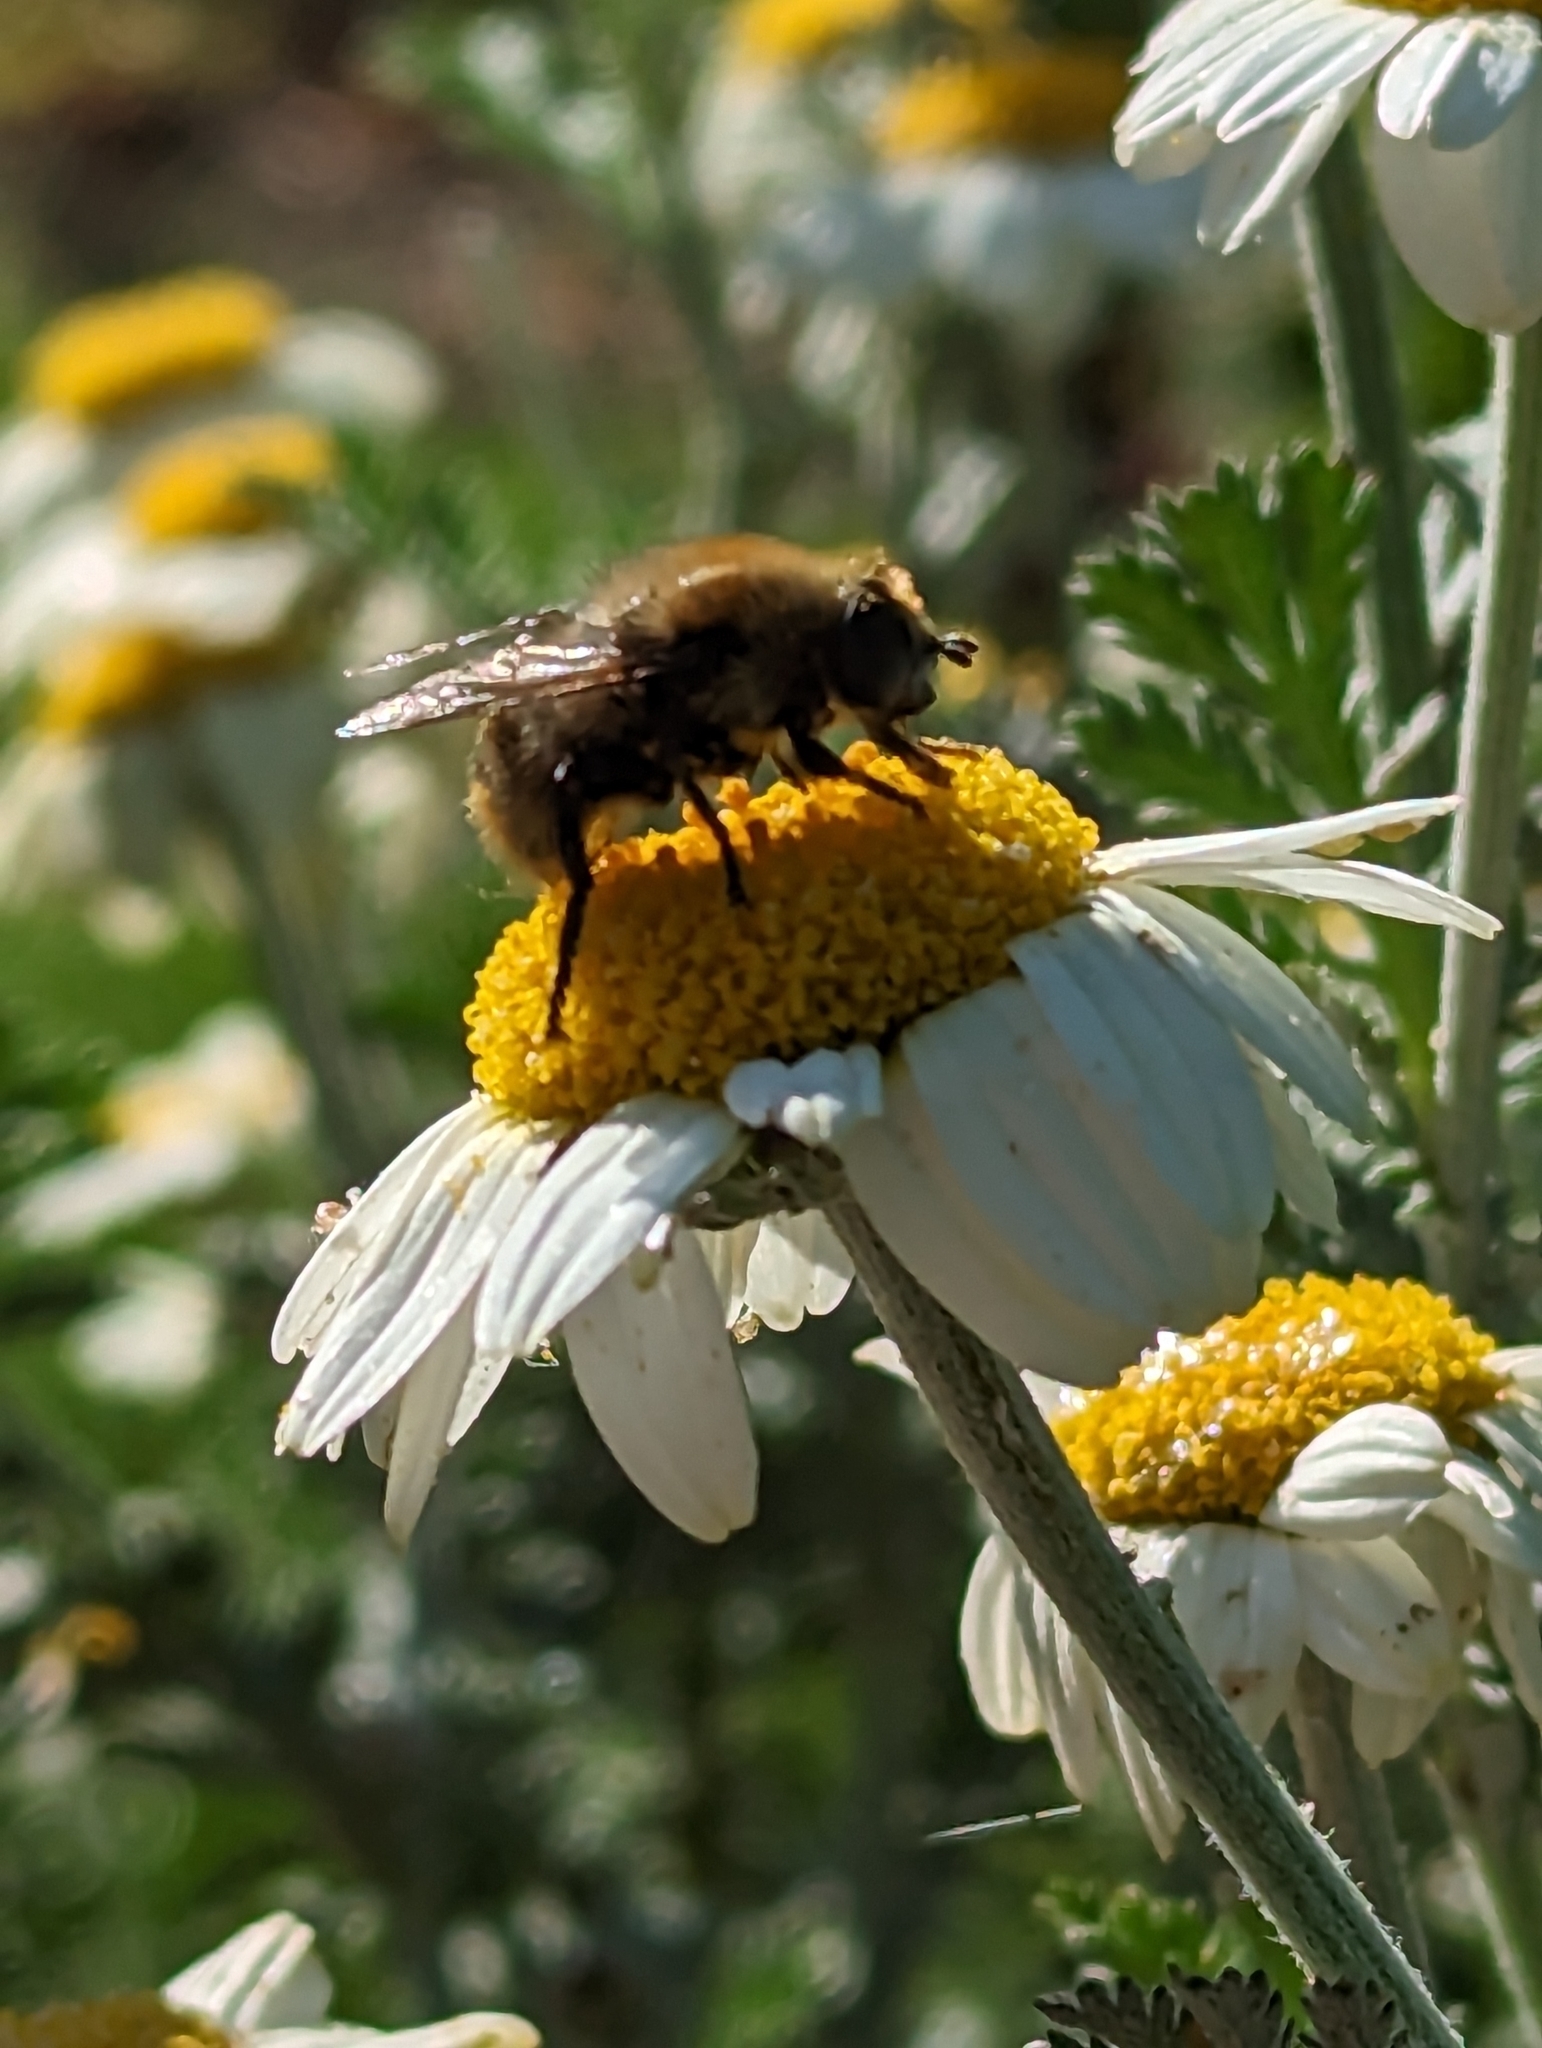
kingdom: Animalia
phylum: Arthropoda
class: Insecta
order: Diptera
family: Syrphidae
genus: Merodon
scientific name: Merodon equestris
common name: Greater bulb-fly
